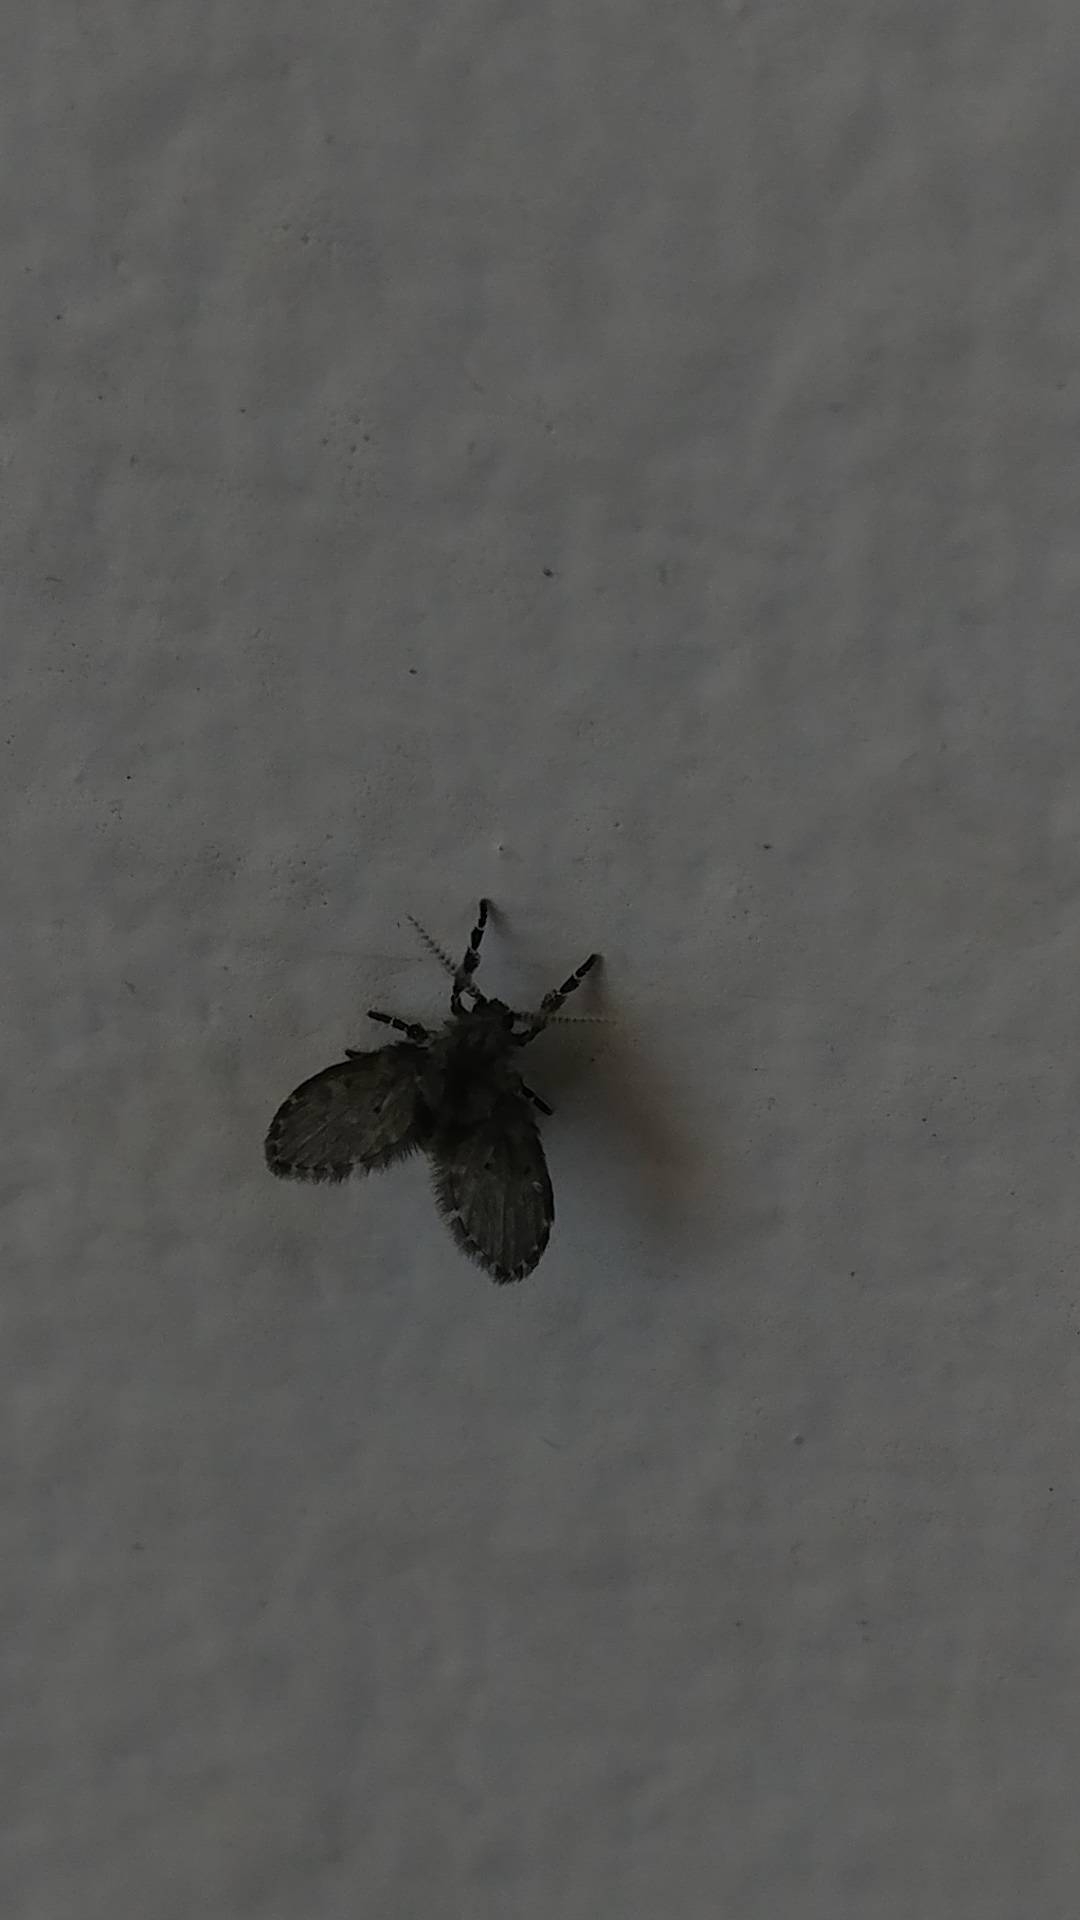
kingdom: Animalia
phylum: Arthropoda
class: Insecta
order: Diptera
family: Psychodidae
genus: Clogmia
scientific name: Clogmia albipunctatus
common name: White-spotted moth fly
